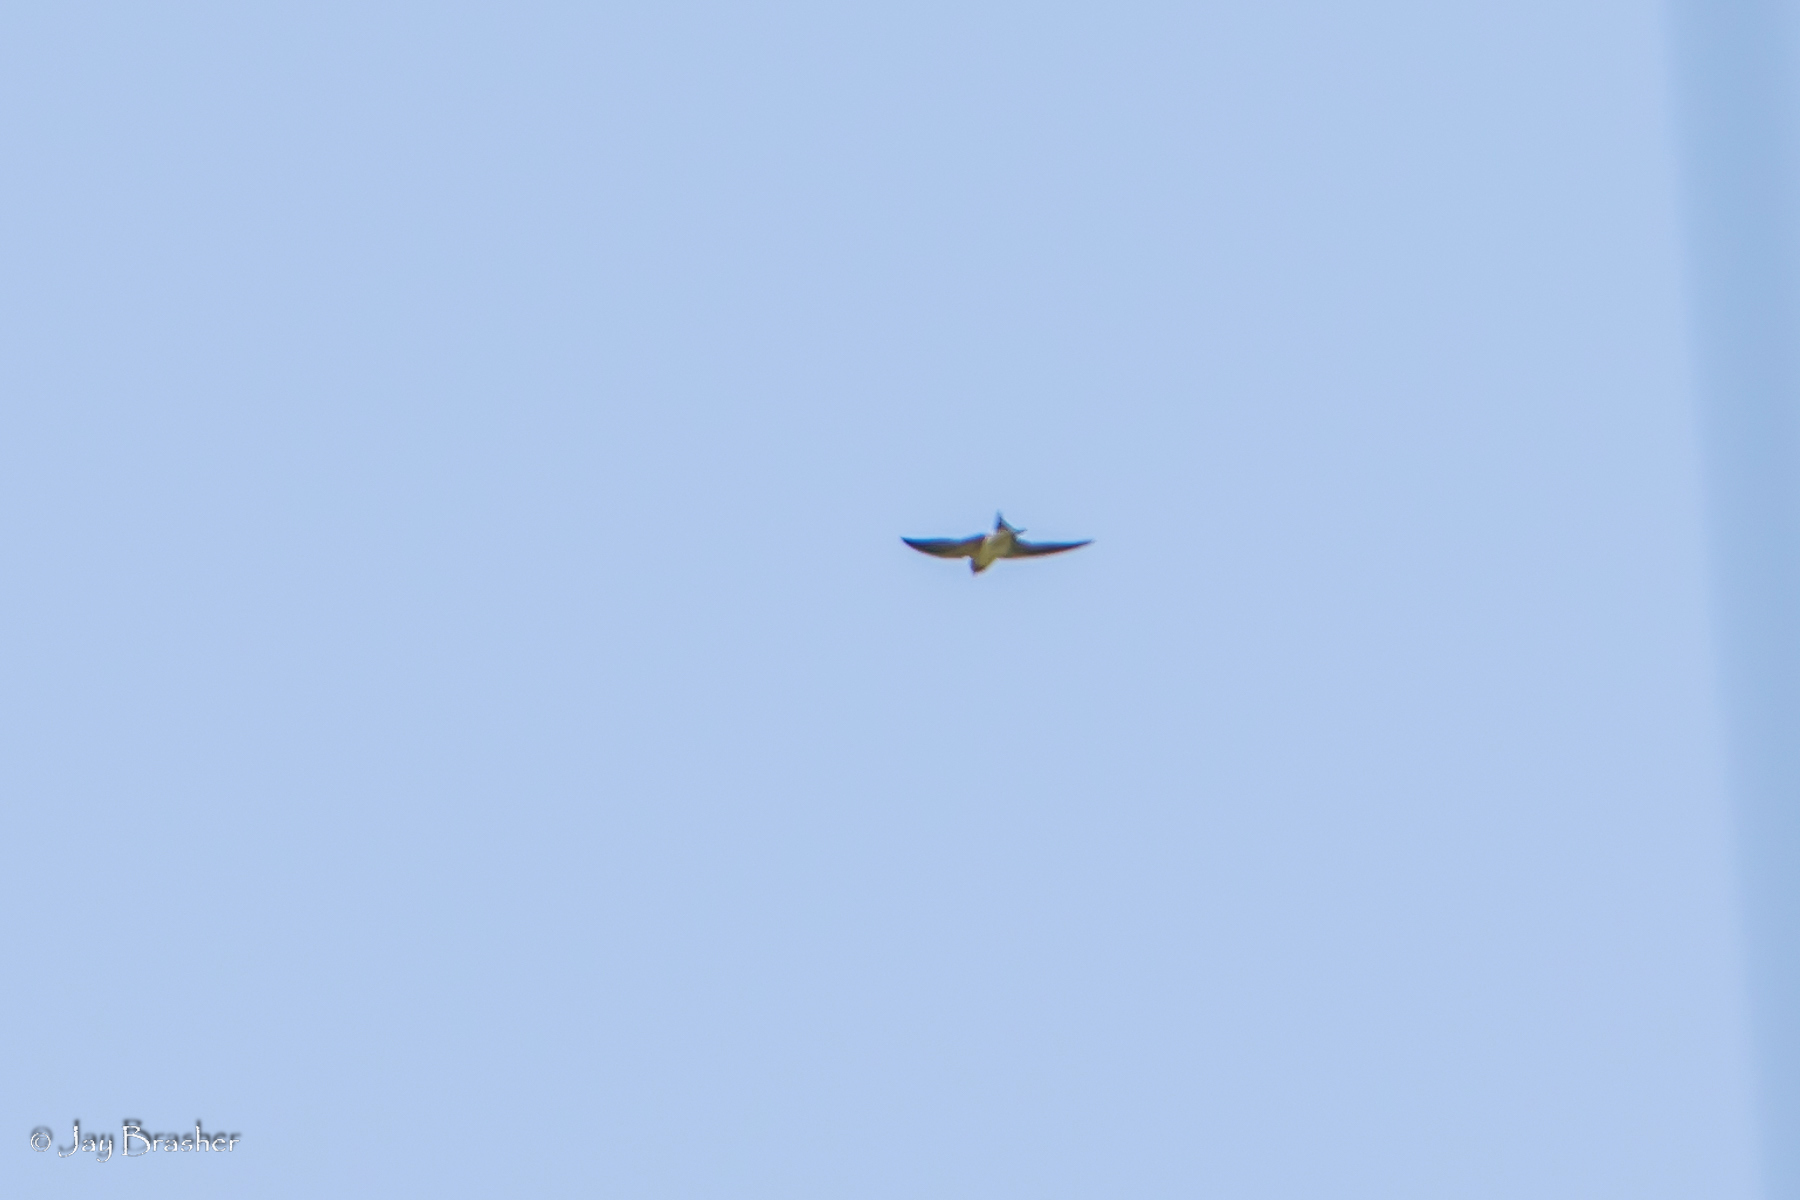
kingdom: Animalia
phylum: Chordata
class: Aves
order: Passeriformes
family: Hirundinidae
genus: Hirundo
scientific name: Hirundo rustica
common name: Barn swallow
